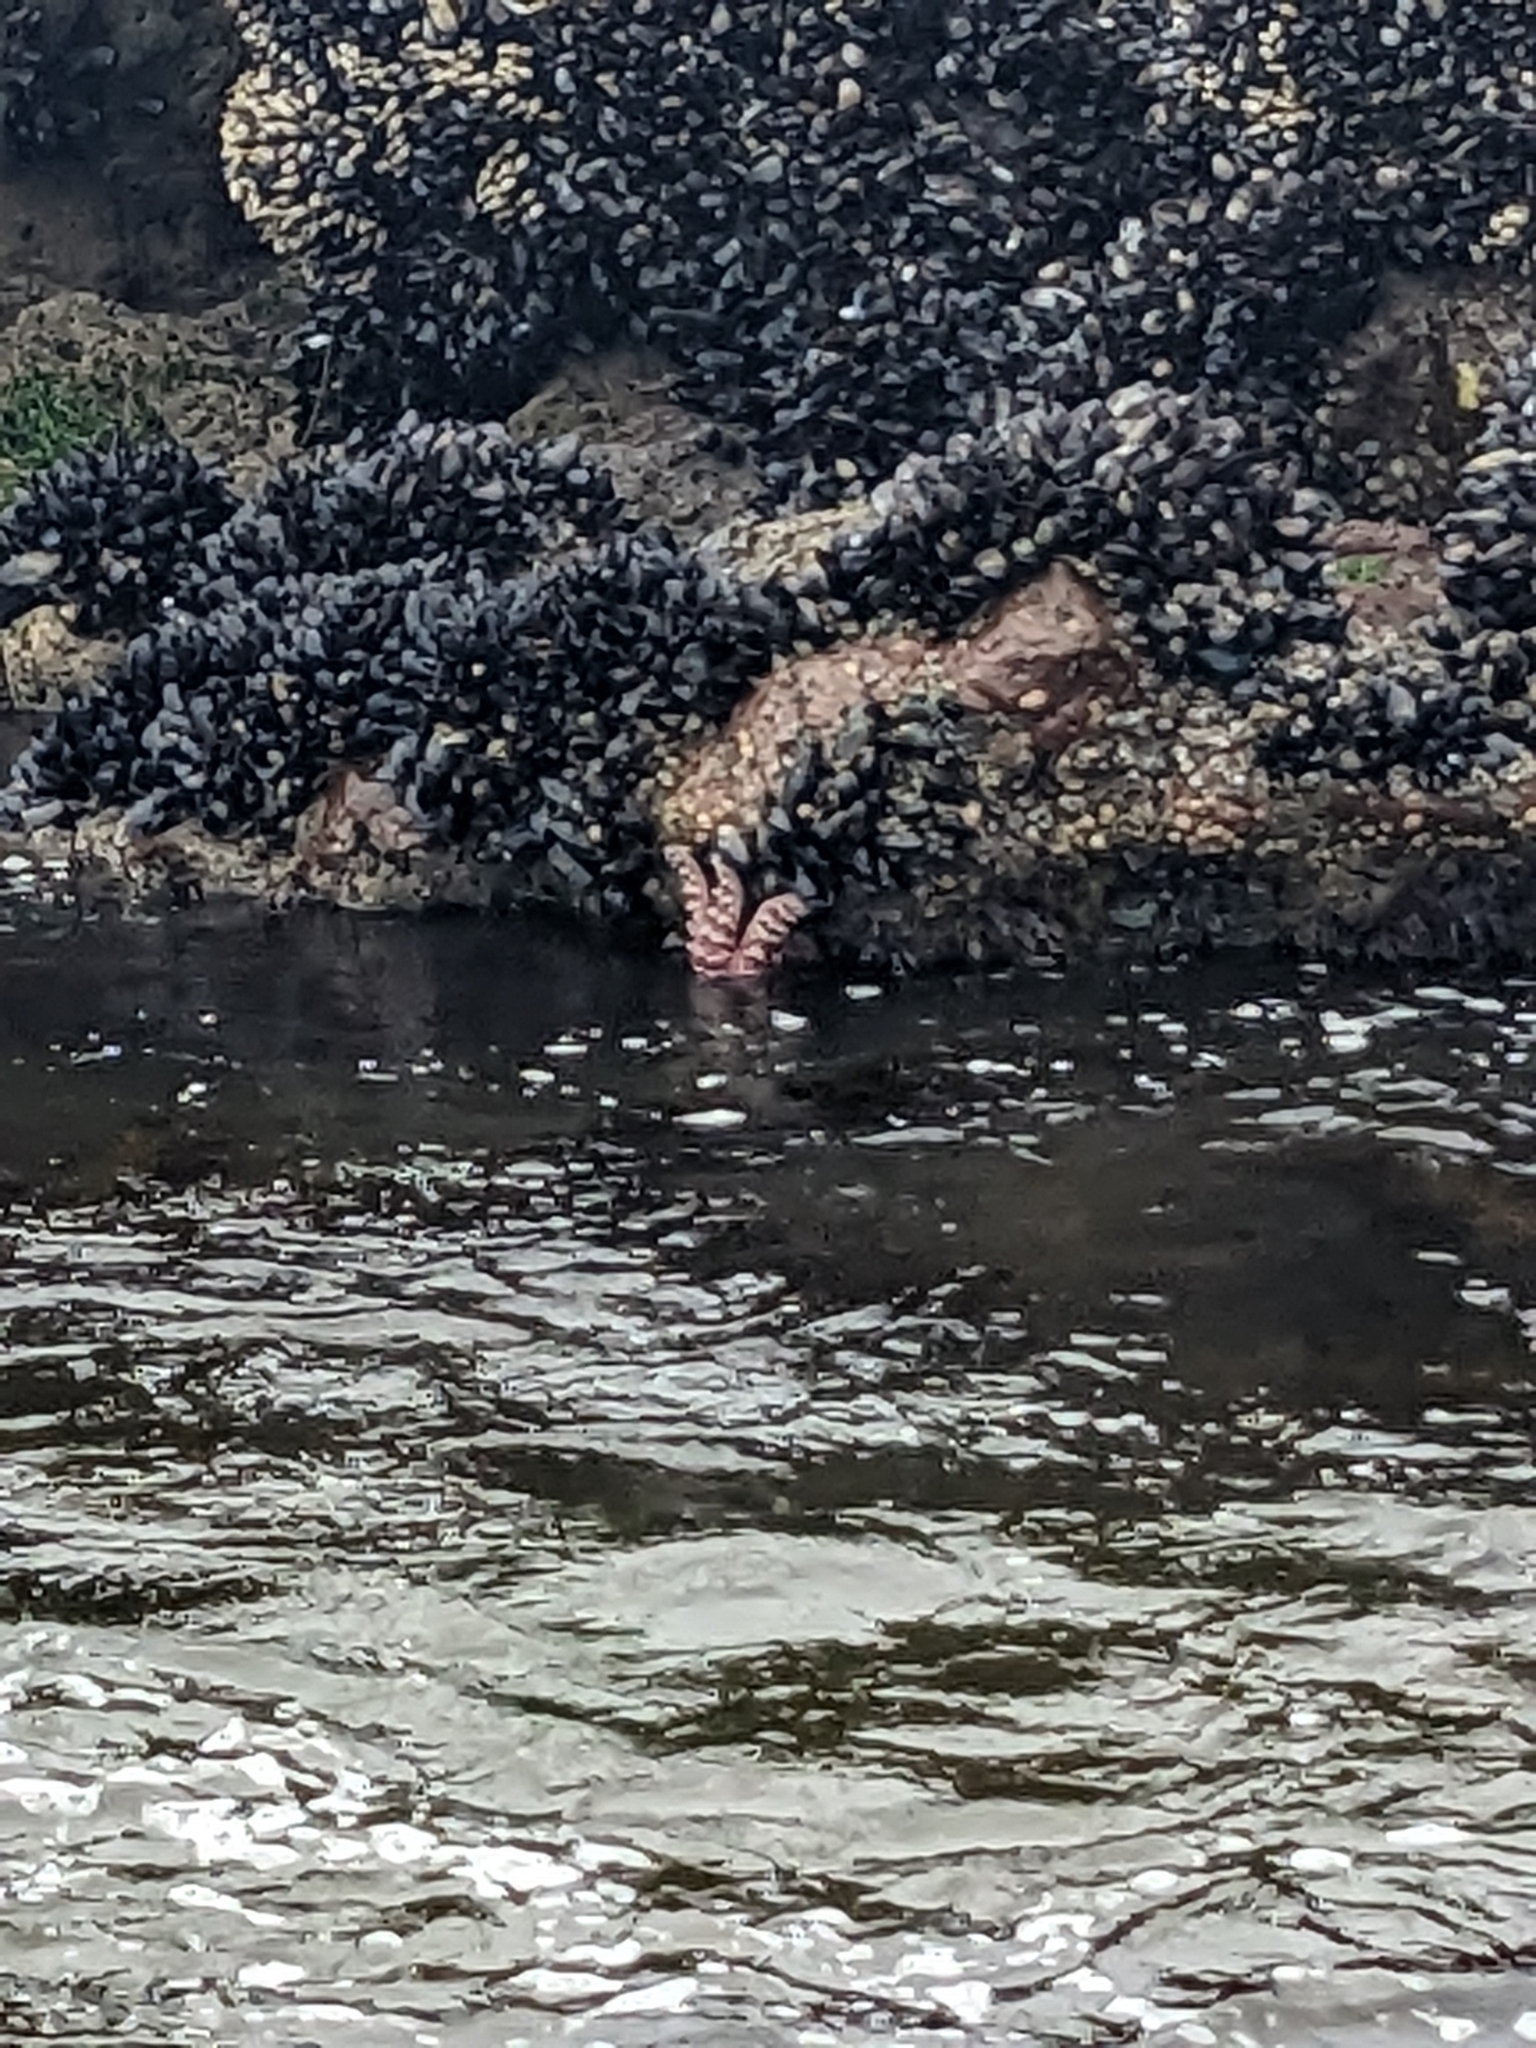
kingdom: Animalia
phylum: Echinodermata
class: Asteroidea
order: Forcipulatida
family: Asteriidae
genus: Pisaster
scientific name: Pisaster ochraceus
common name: Ochre stars
